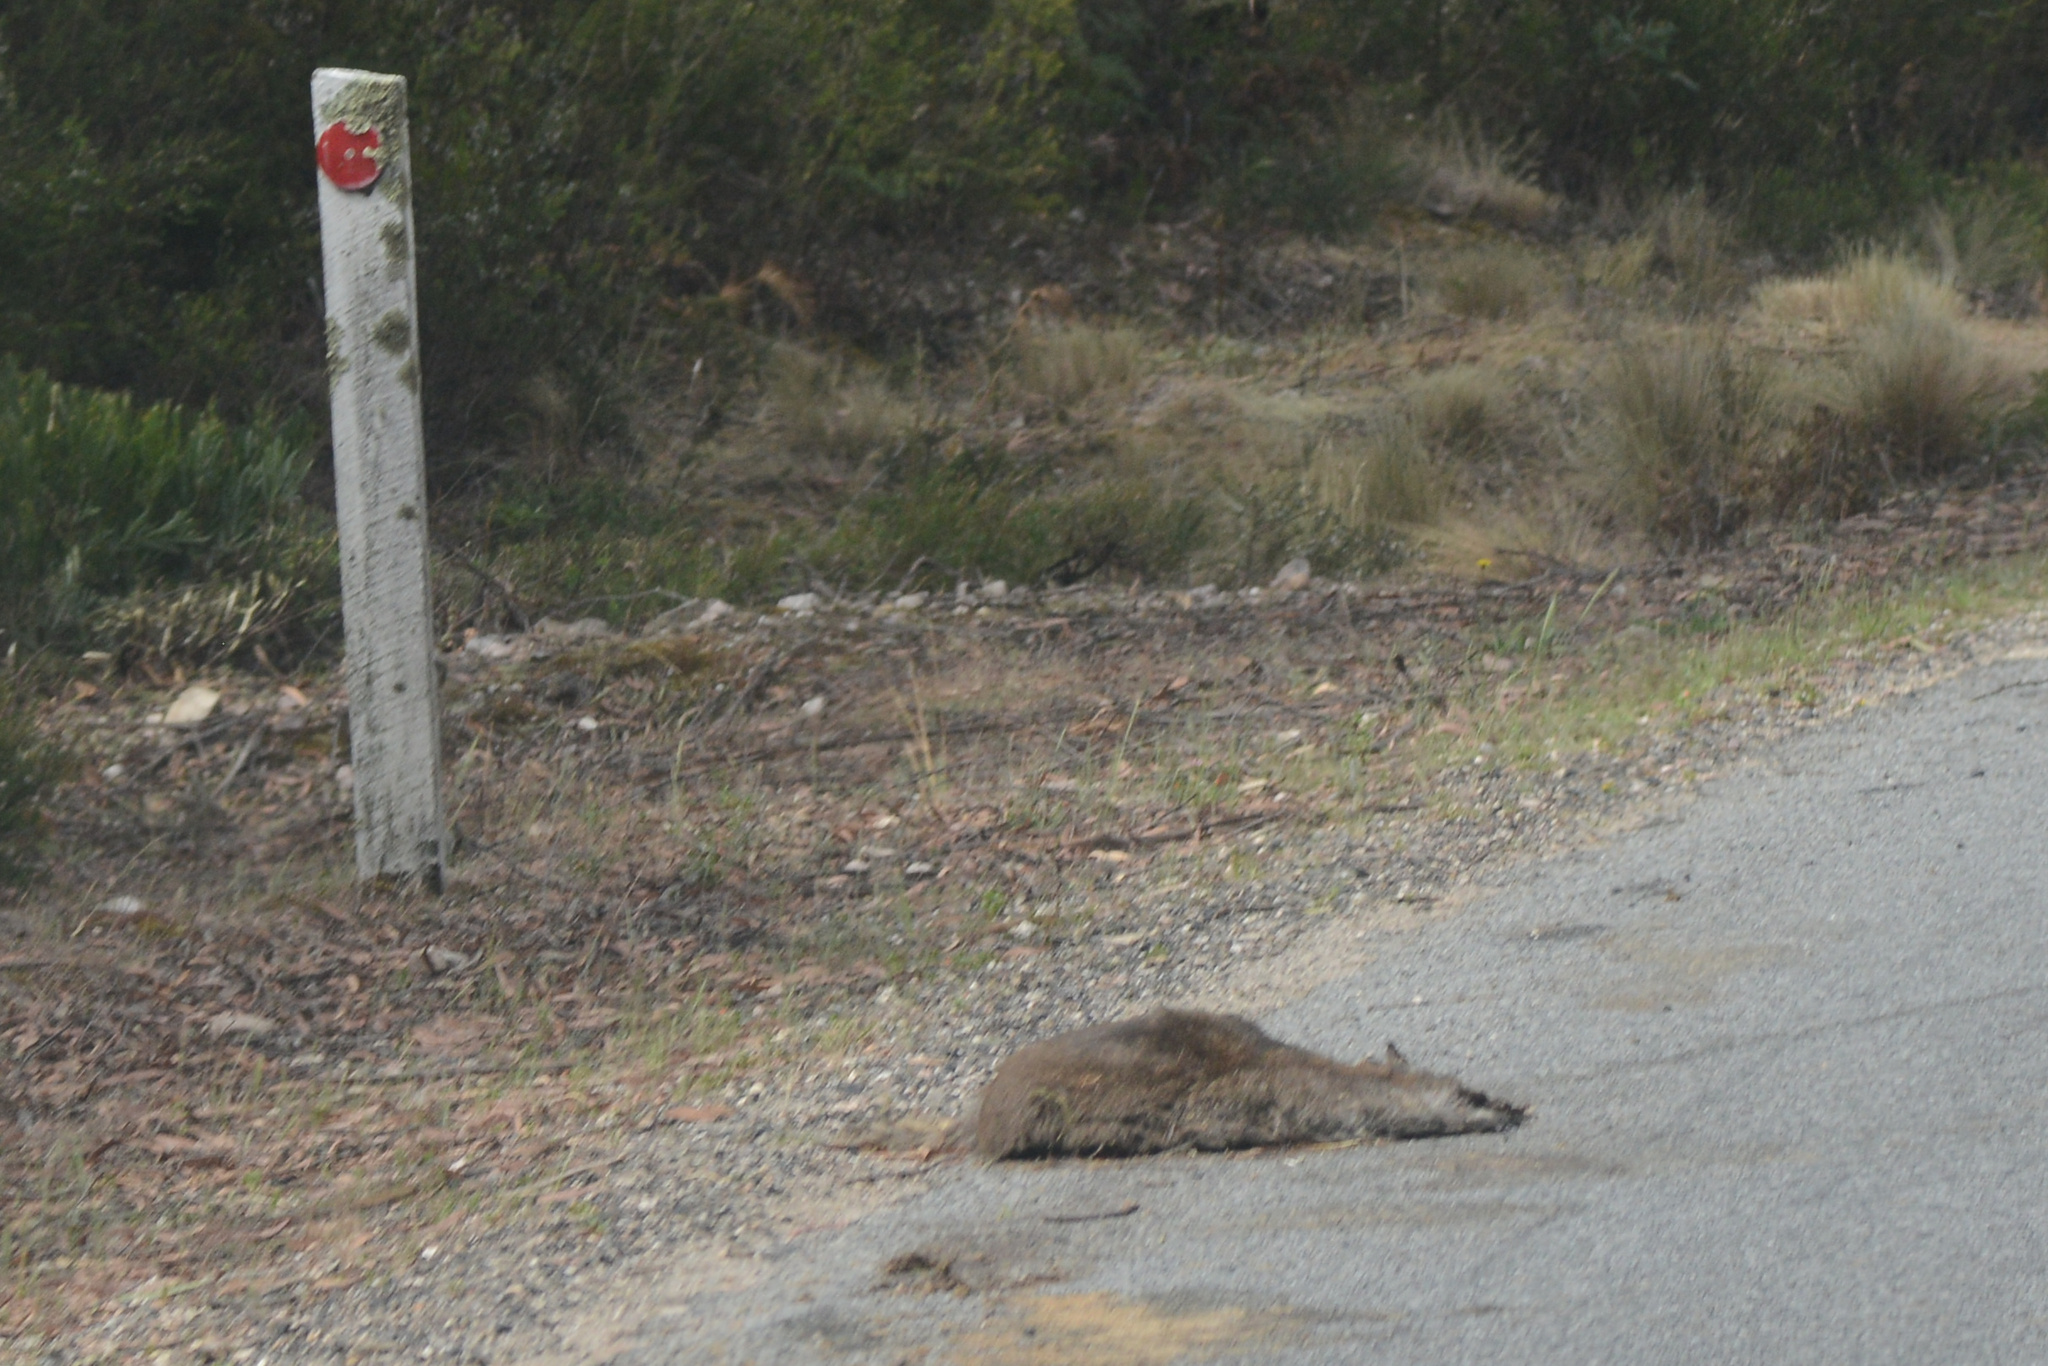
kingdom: Animalia
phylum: Chordata
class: Mammalia
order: Diprotodontia
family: Macropodidae
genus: Thylogale
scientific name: Thylogale billardierii
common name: Tasmanian pademelon
